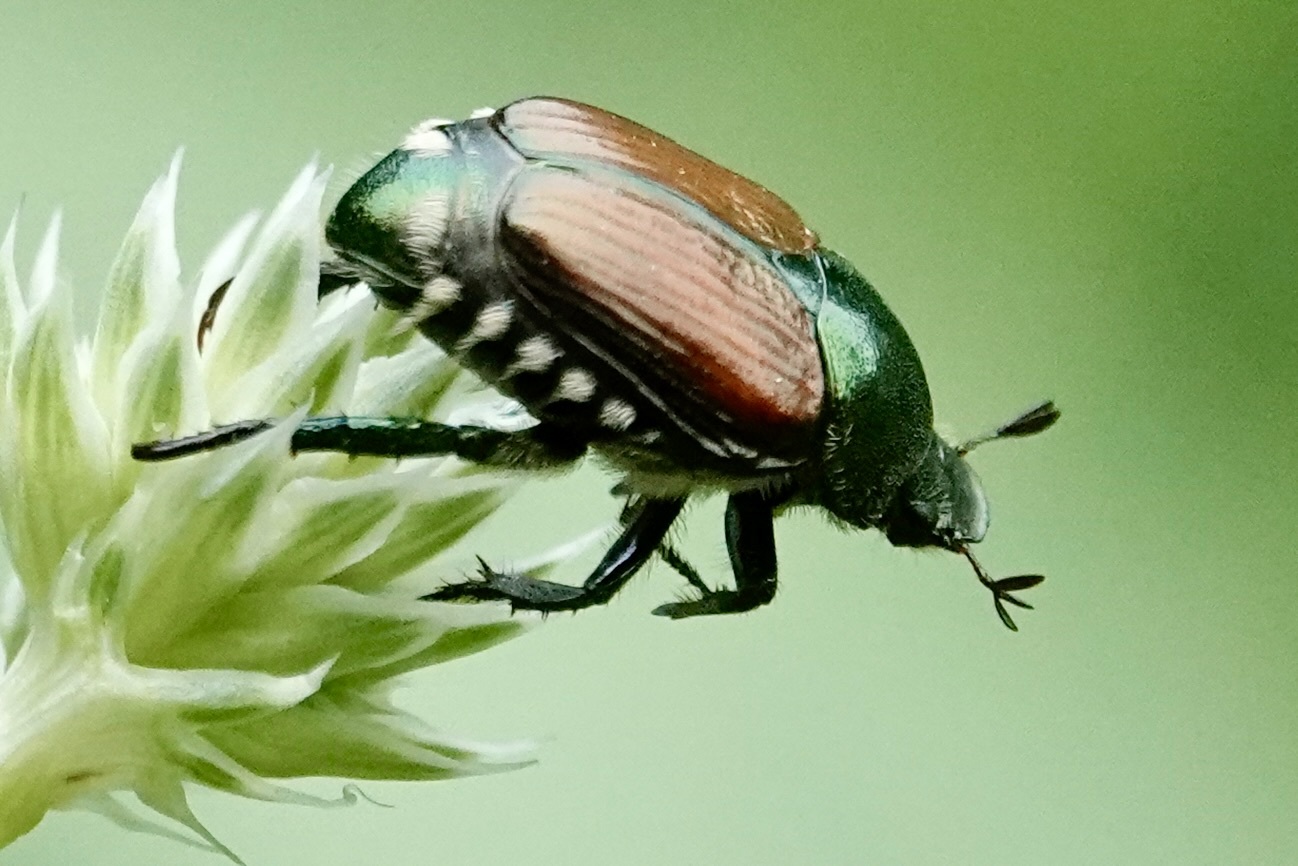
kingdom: Animalia
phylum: Arthropoda
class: Insecta
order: Coleoptera
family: Scarabaeidae
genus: Popillia
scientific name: Popillia japonica
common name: Japanese beetle
